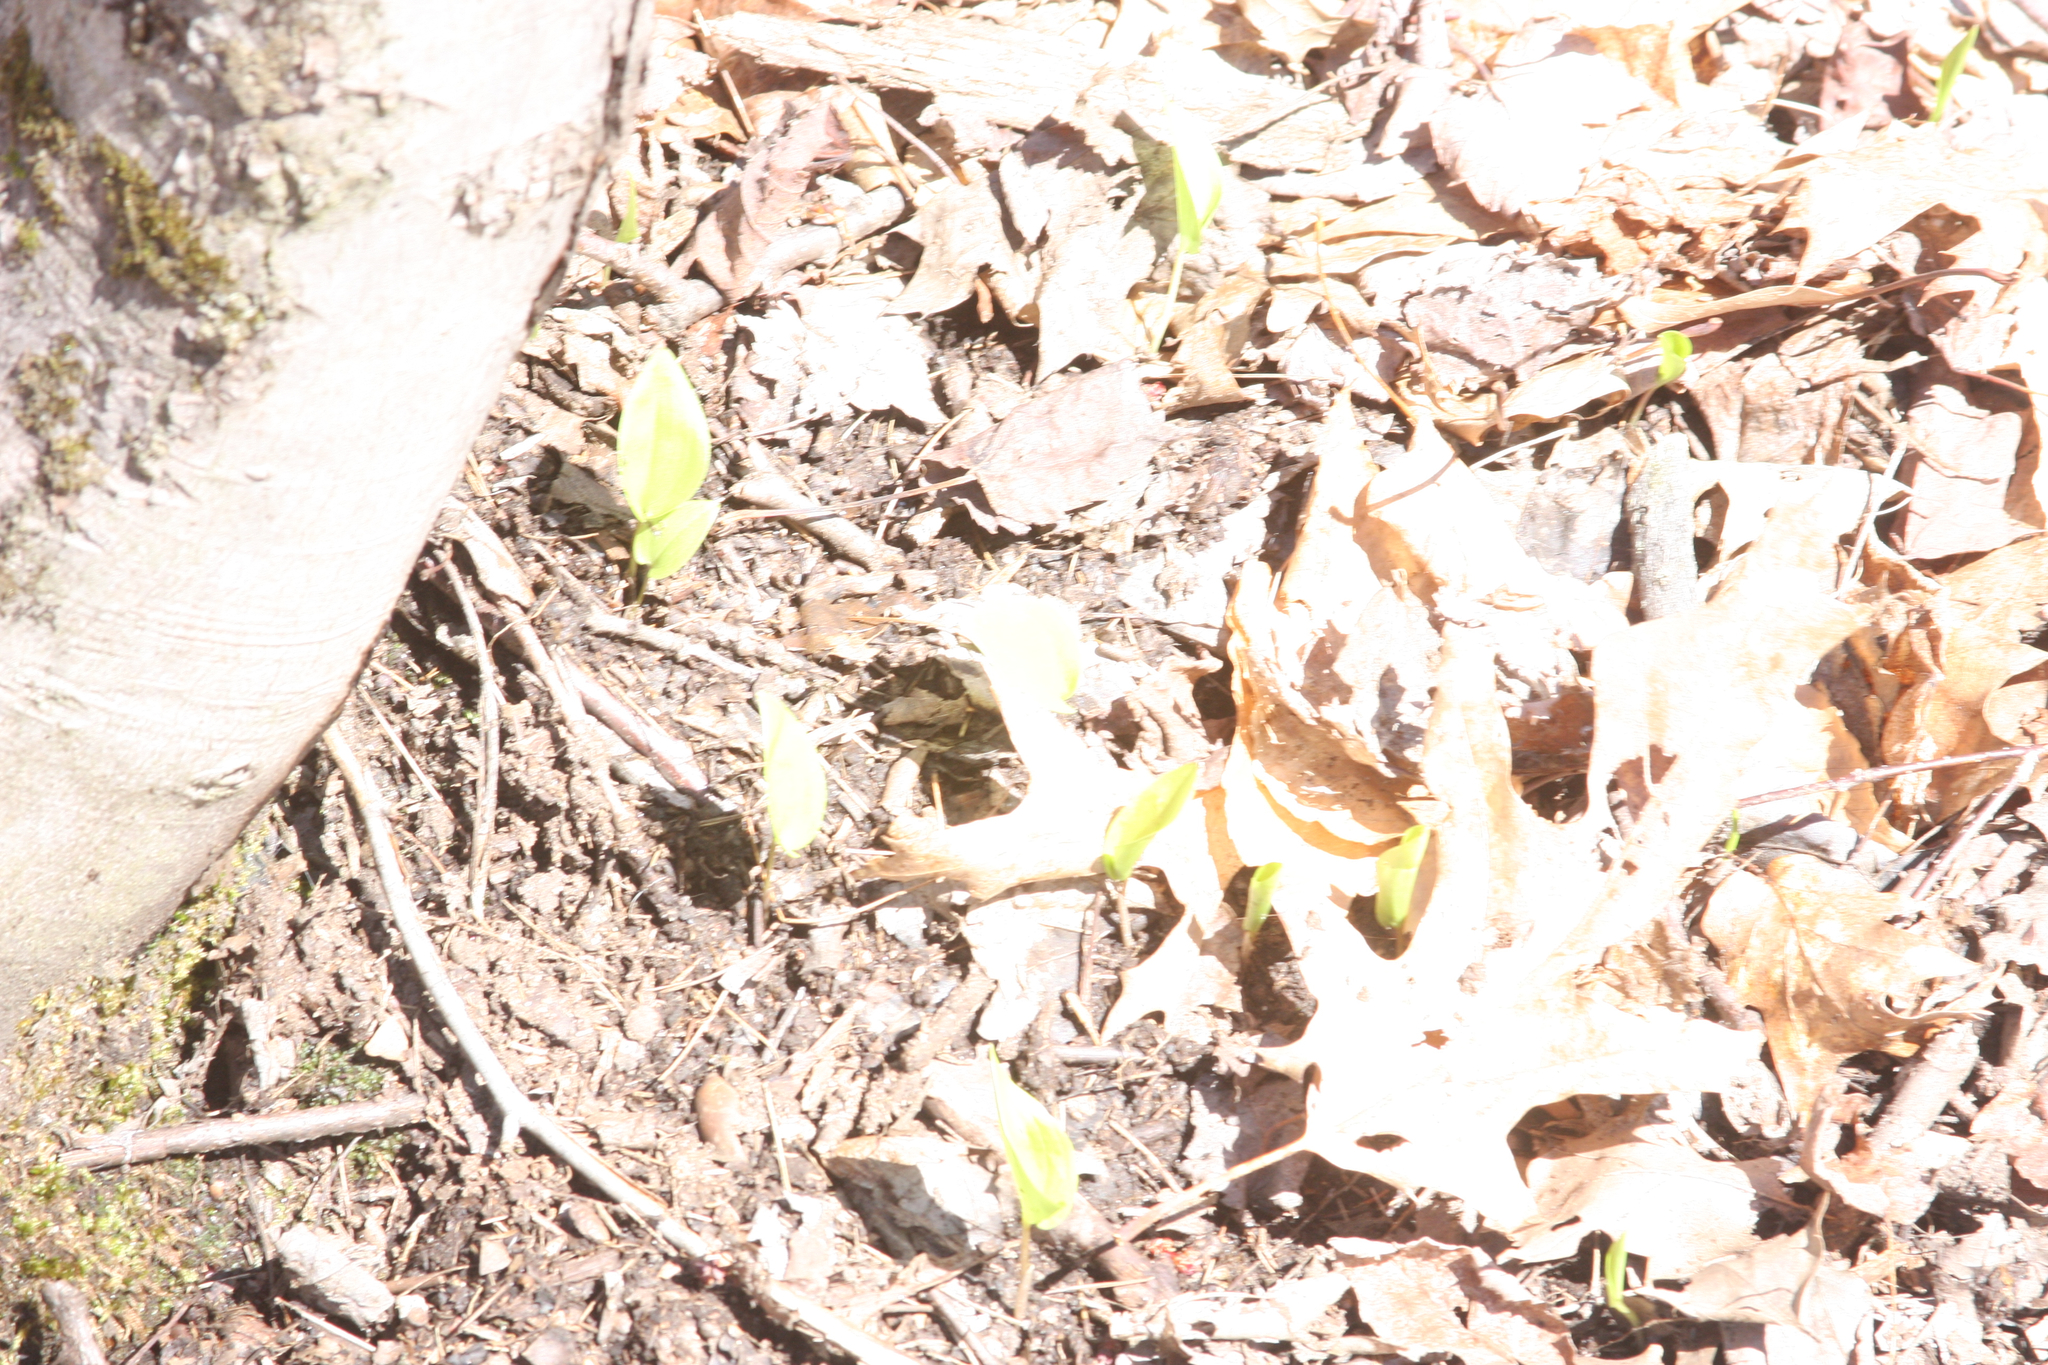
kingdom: Plantae
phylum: Tracheophyta
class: Liliopsida
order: Asparagales
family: Asparagaceae
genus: Maianthemum
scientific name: Maianthemum canadense
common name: False lily-of-the-valley
